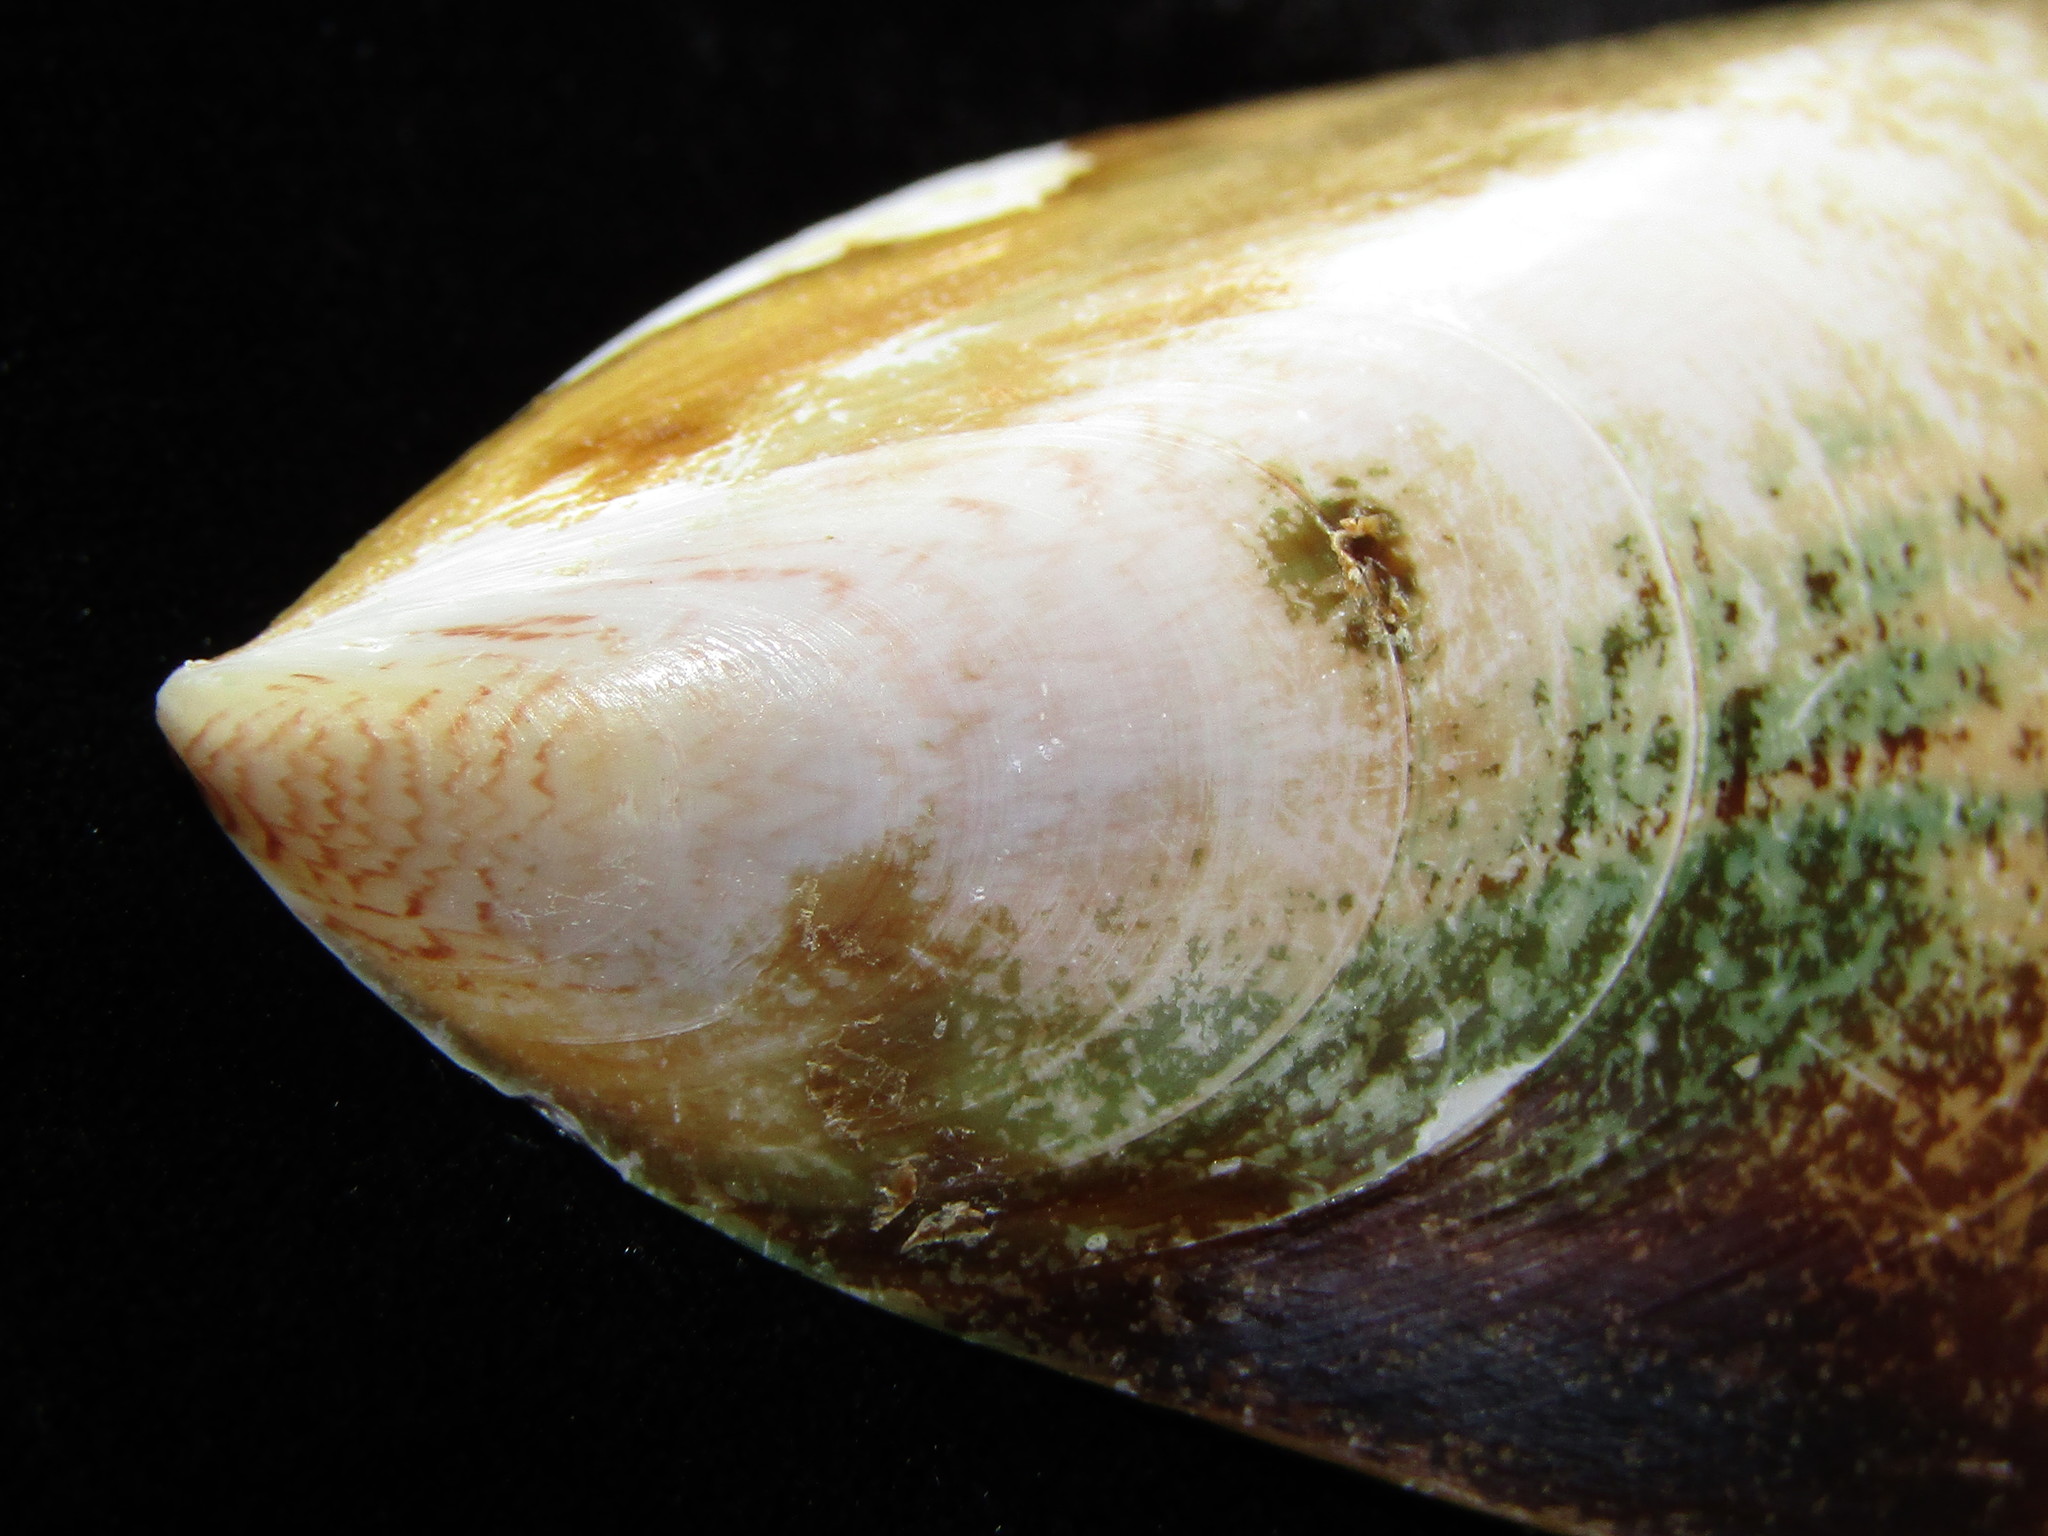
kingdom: Animalia
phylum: Mollusca
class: Bivalvia
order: Mytilida
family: Mytilidae
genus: Perna
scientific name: Perna canaliculus
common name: New zealand greenshelltm
